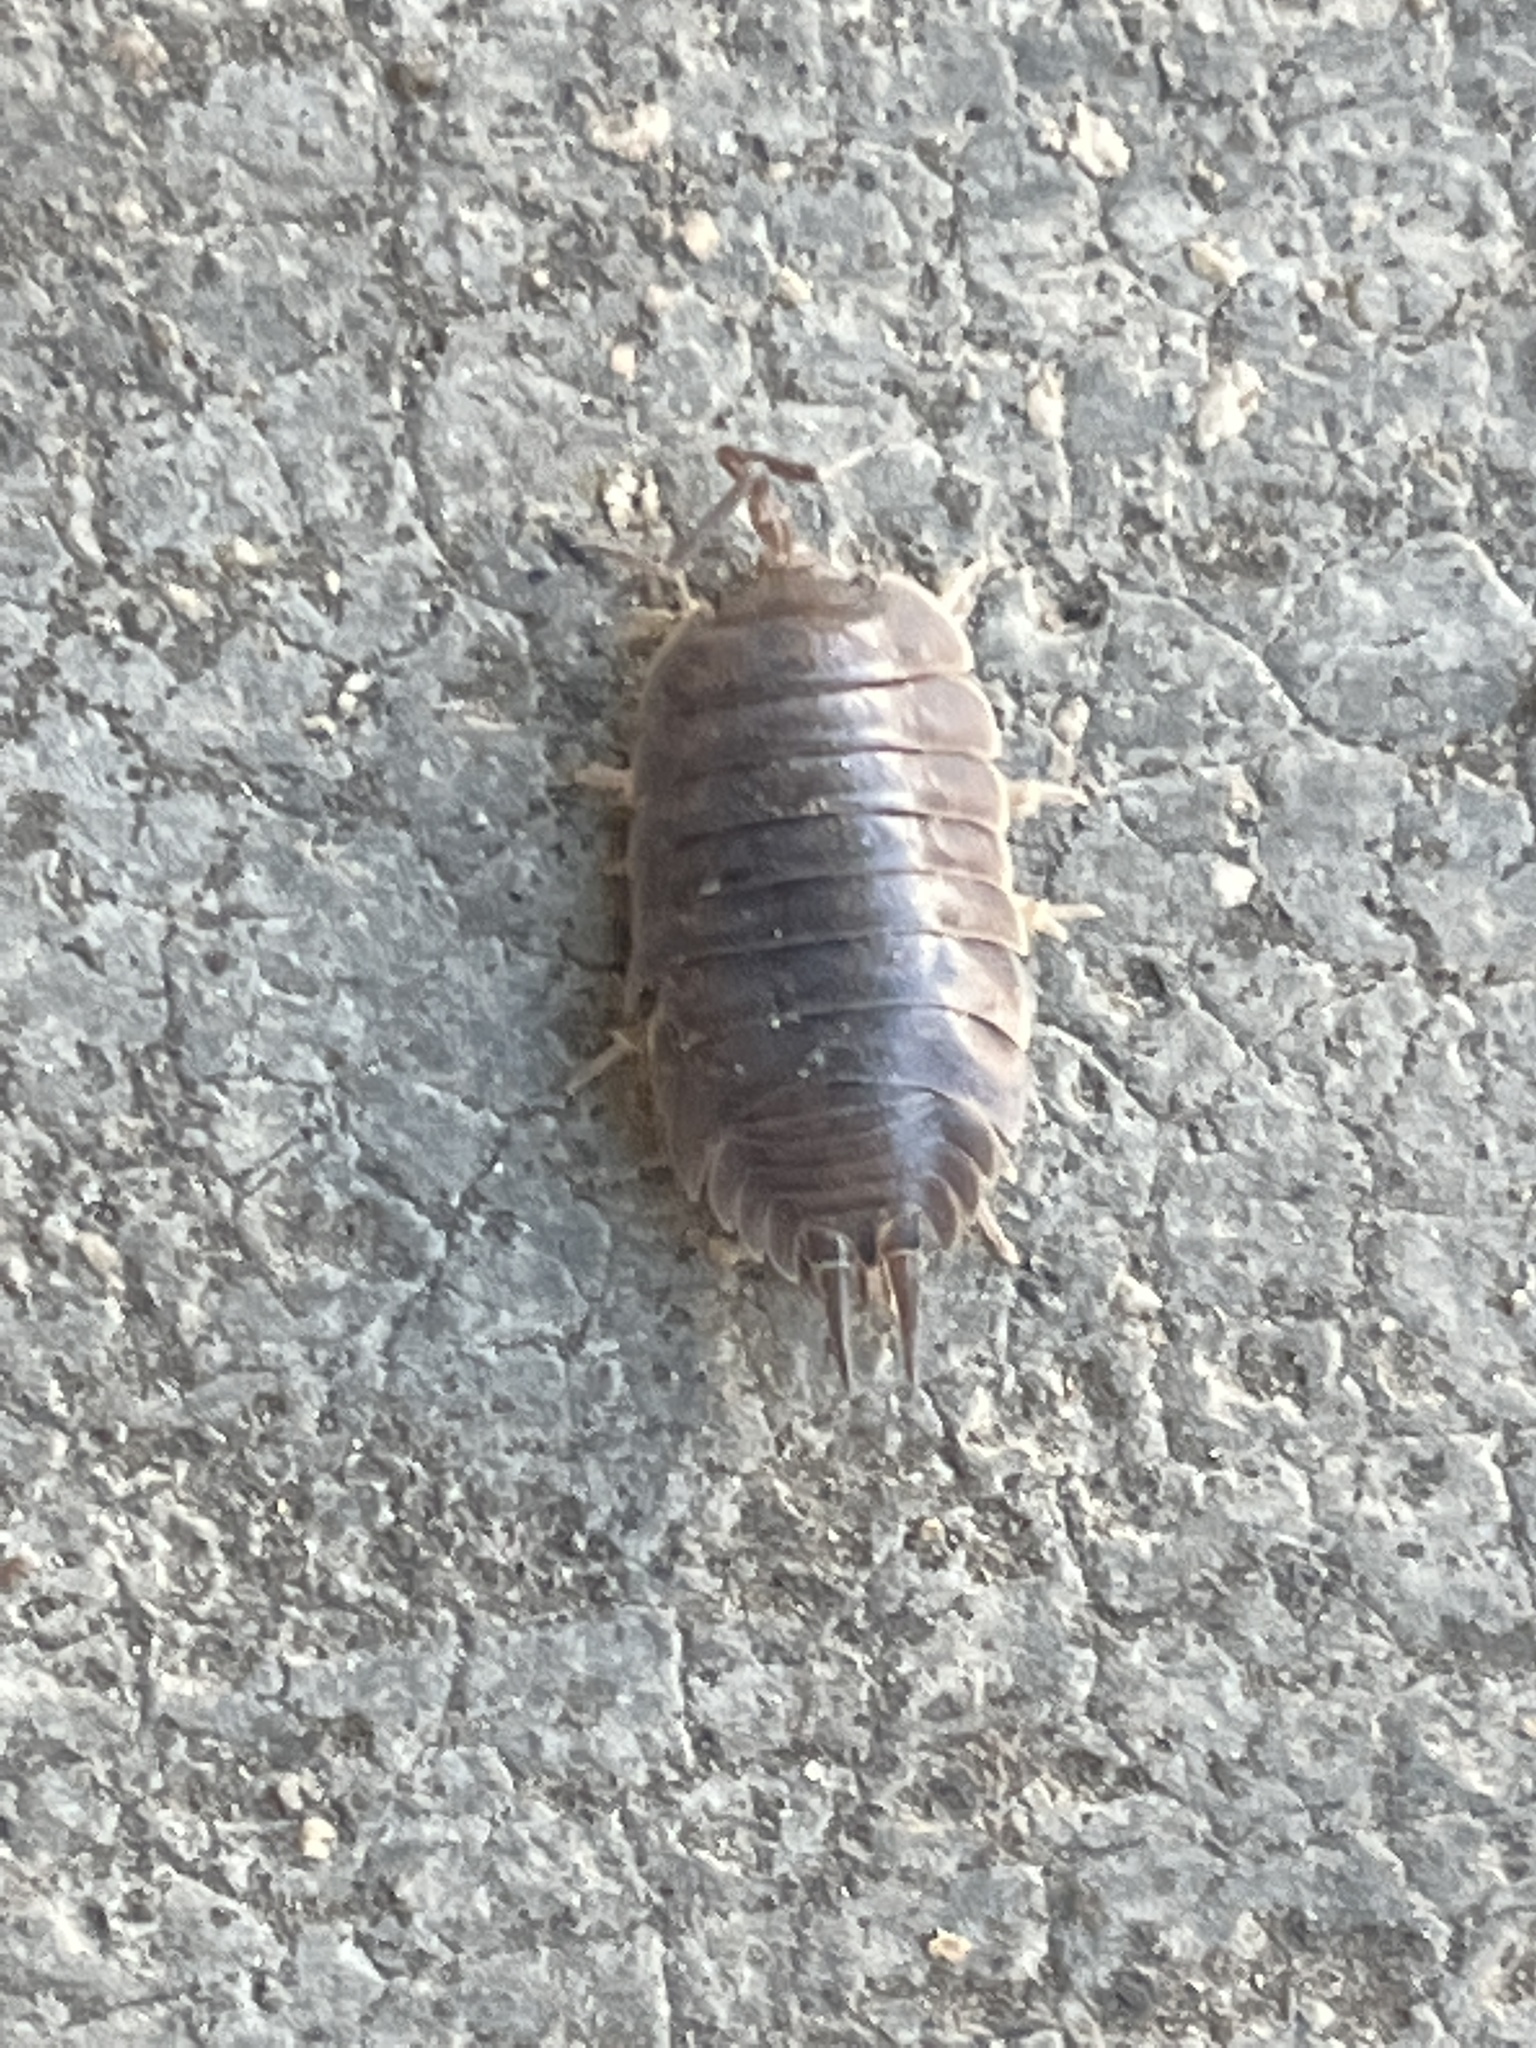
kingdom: Animalia
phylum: Arthropoda
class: Malacostraca
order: Isopoda
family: Porcellionidae
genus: Porcellio
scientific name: Porcellio laevis
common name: Swift woodlouse
